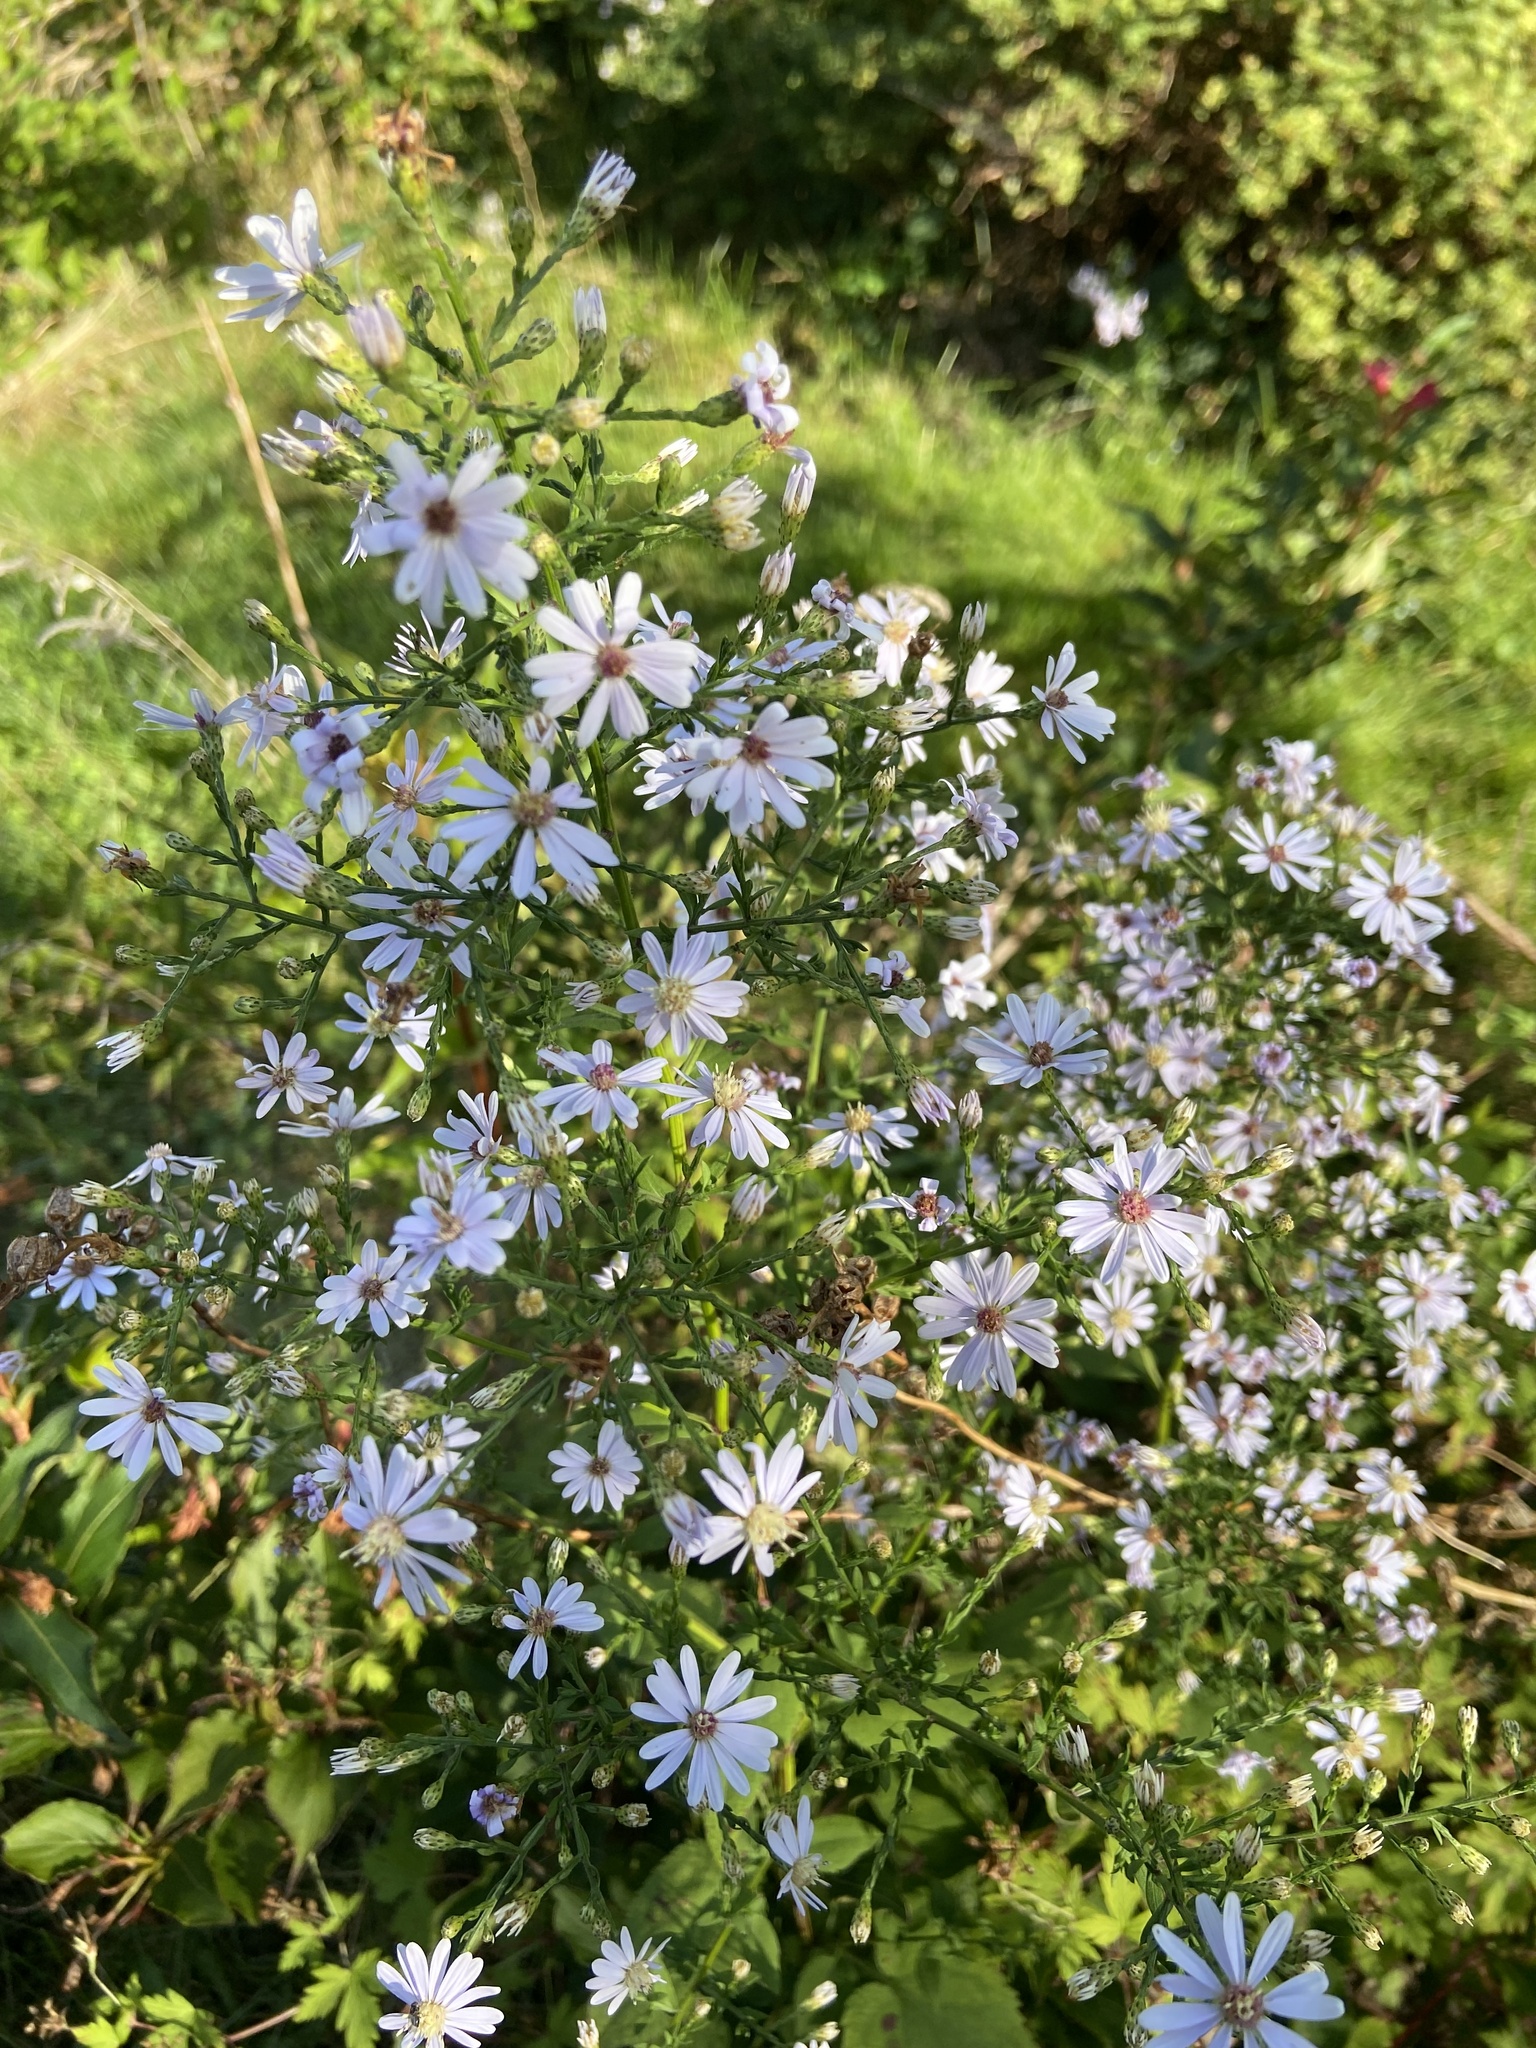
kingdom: Plantae
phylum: Tracheophyta
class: Magnoliopsida
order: Asterales
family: Asteraceae
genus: Symphyotrichum
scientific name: Symphyotrichum cordifolium
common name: Beeweed
